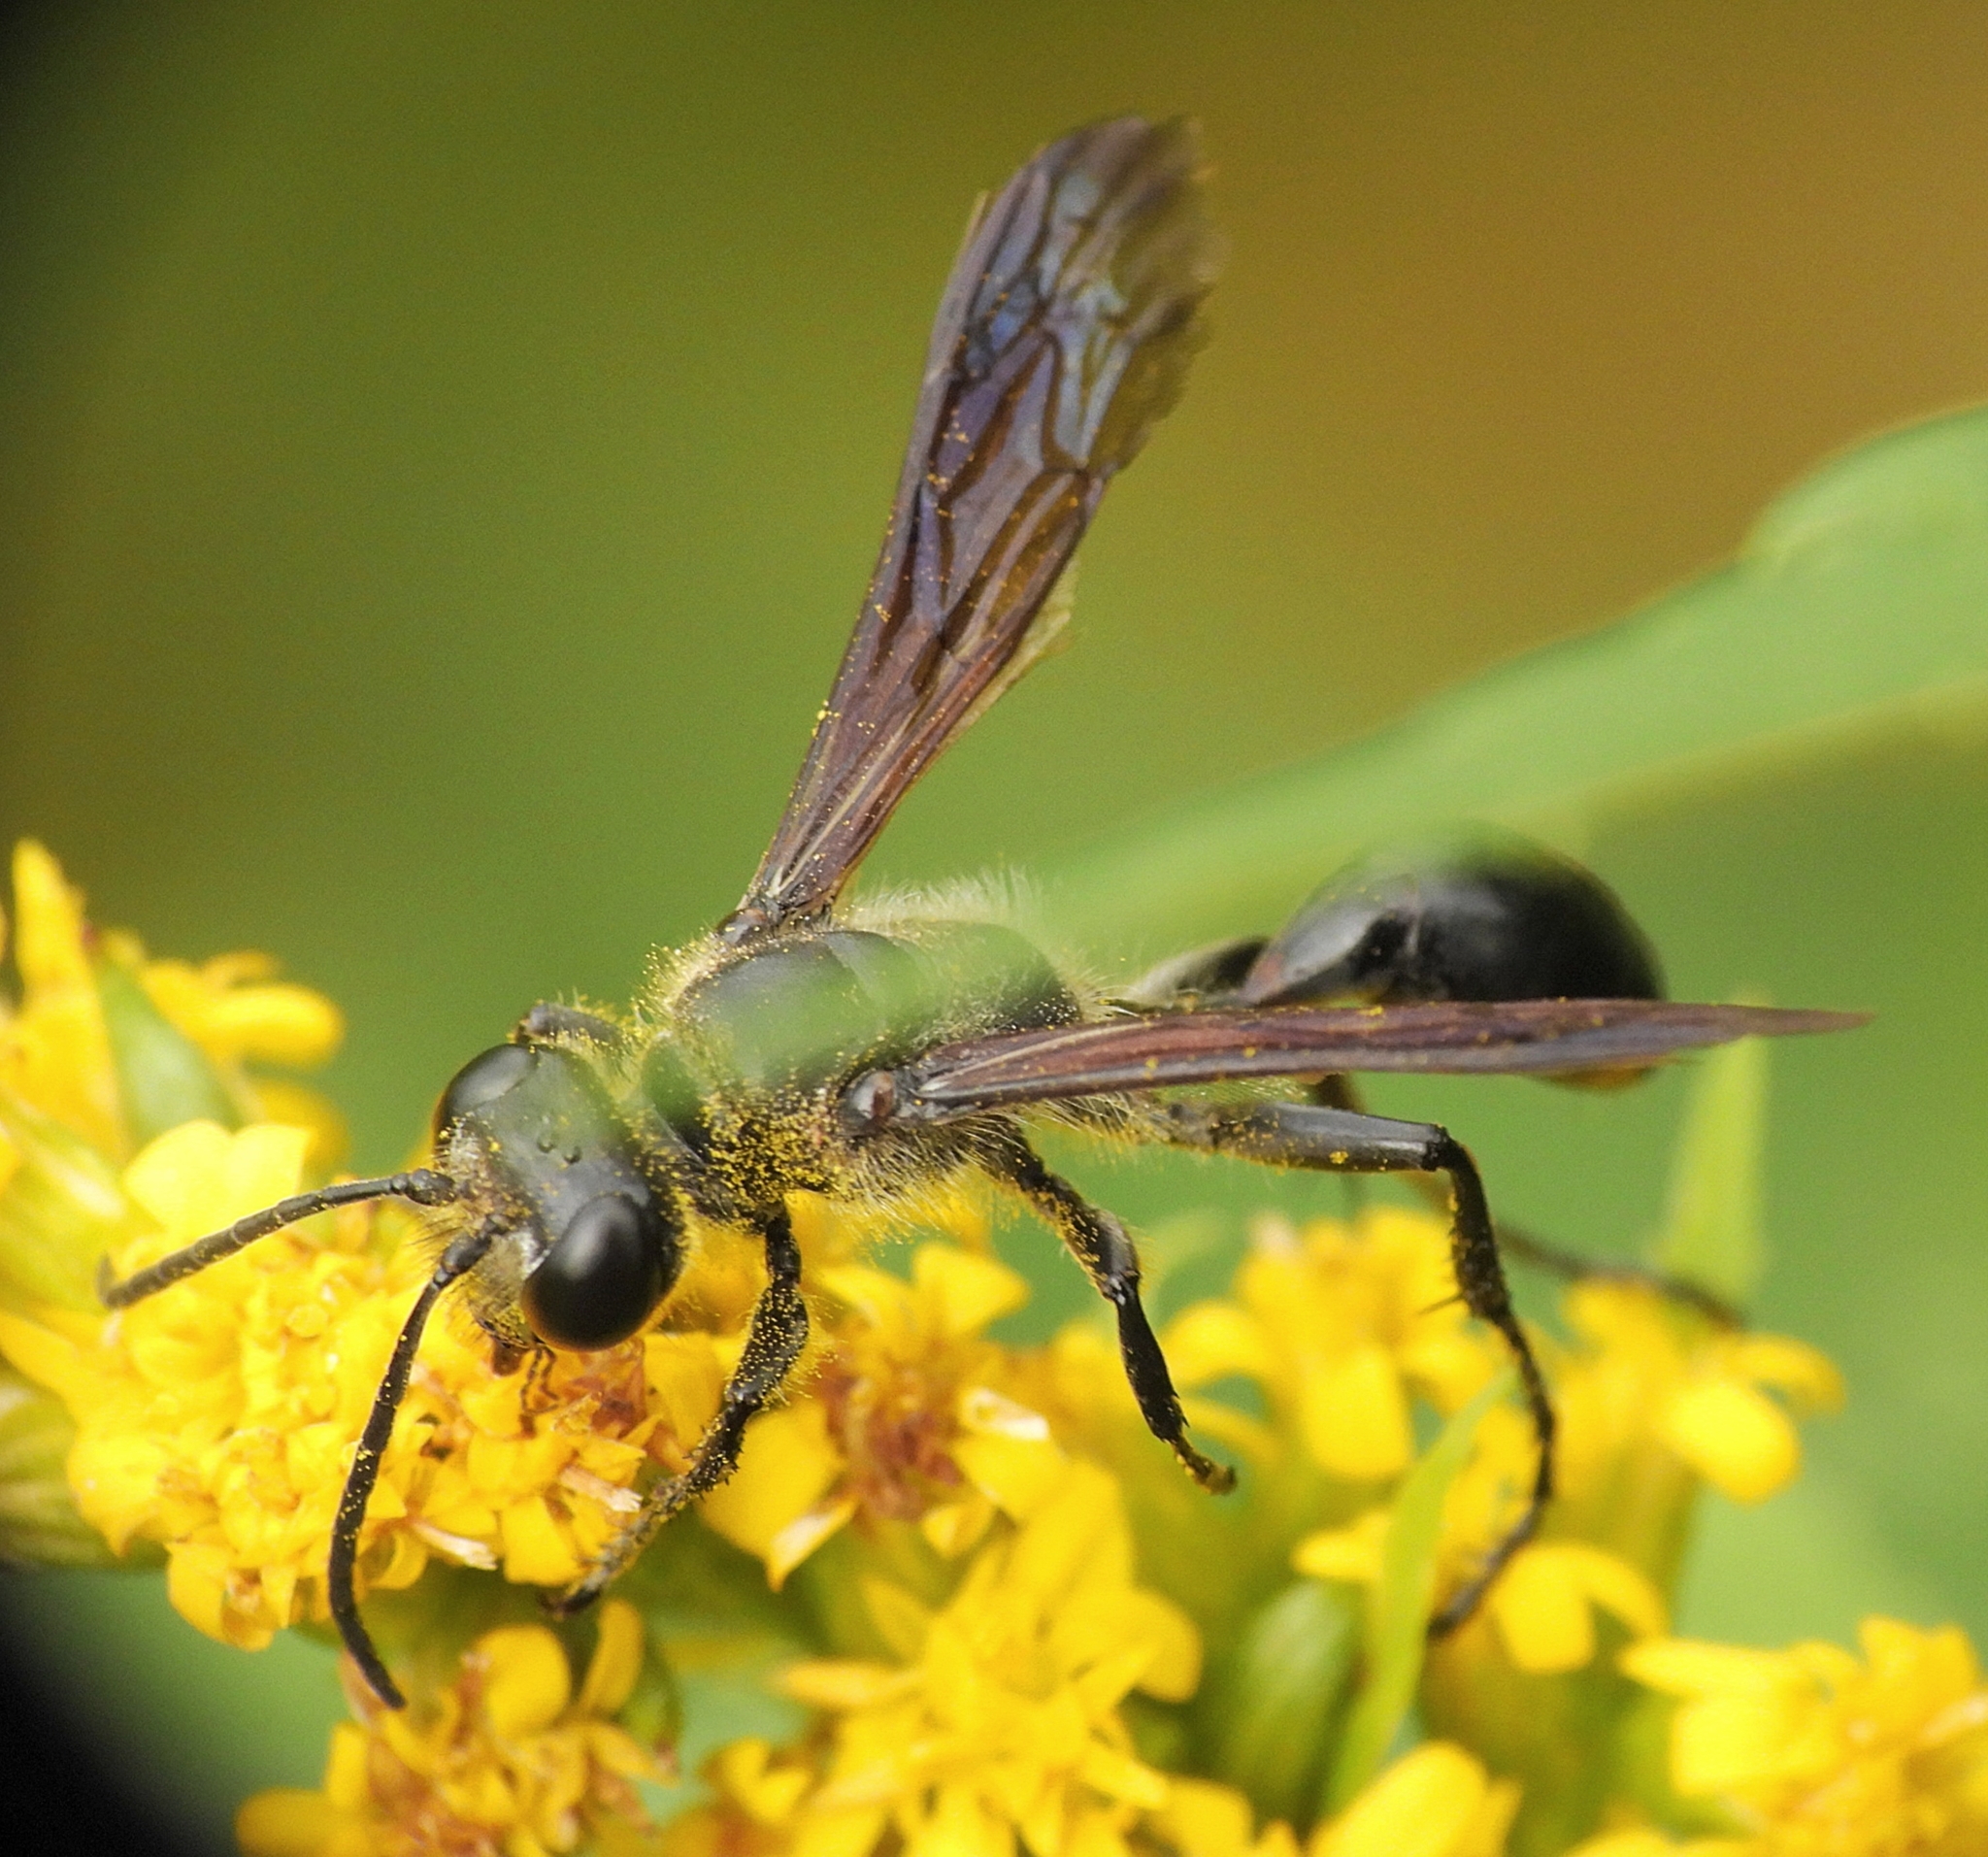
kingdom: Animalia
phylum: Arthropoda
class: Insecta
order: Hymenoptera
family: Sphecidae
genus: Isodontia
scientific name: Isodontia mexicana
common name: Mud dauber
